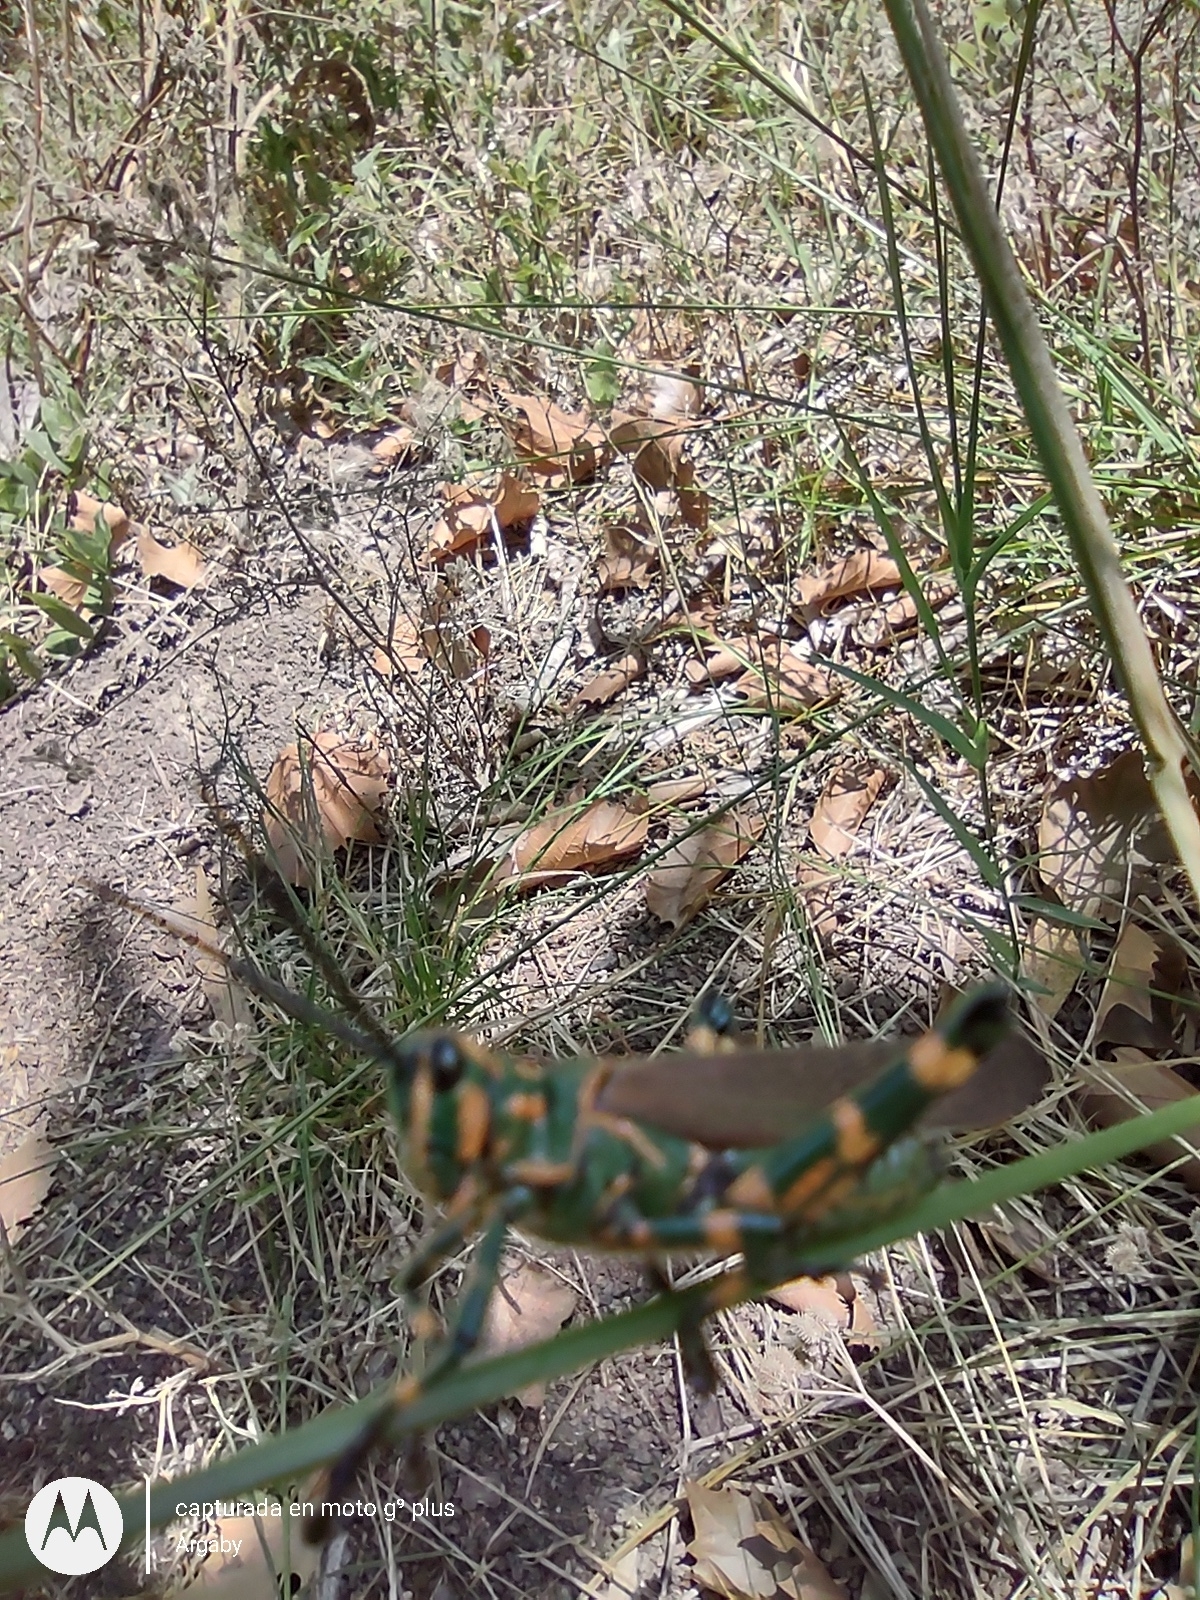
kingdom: Animalia
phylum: Arthropoda
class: Insecta
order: Orthoptera
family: Romaleidae
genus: Chromacris
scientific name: Chromacris speciosa
